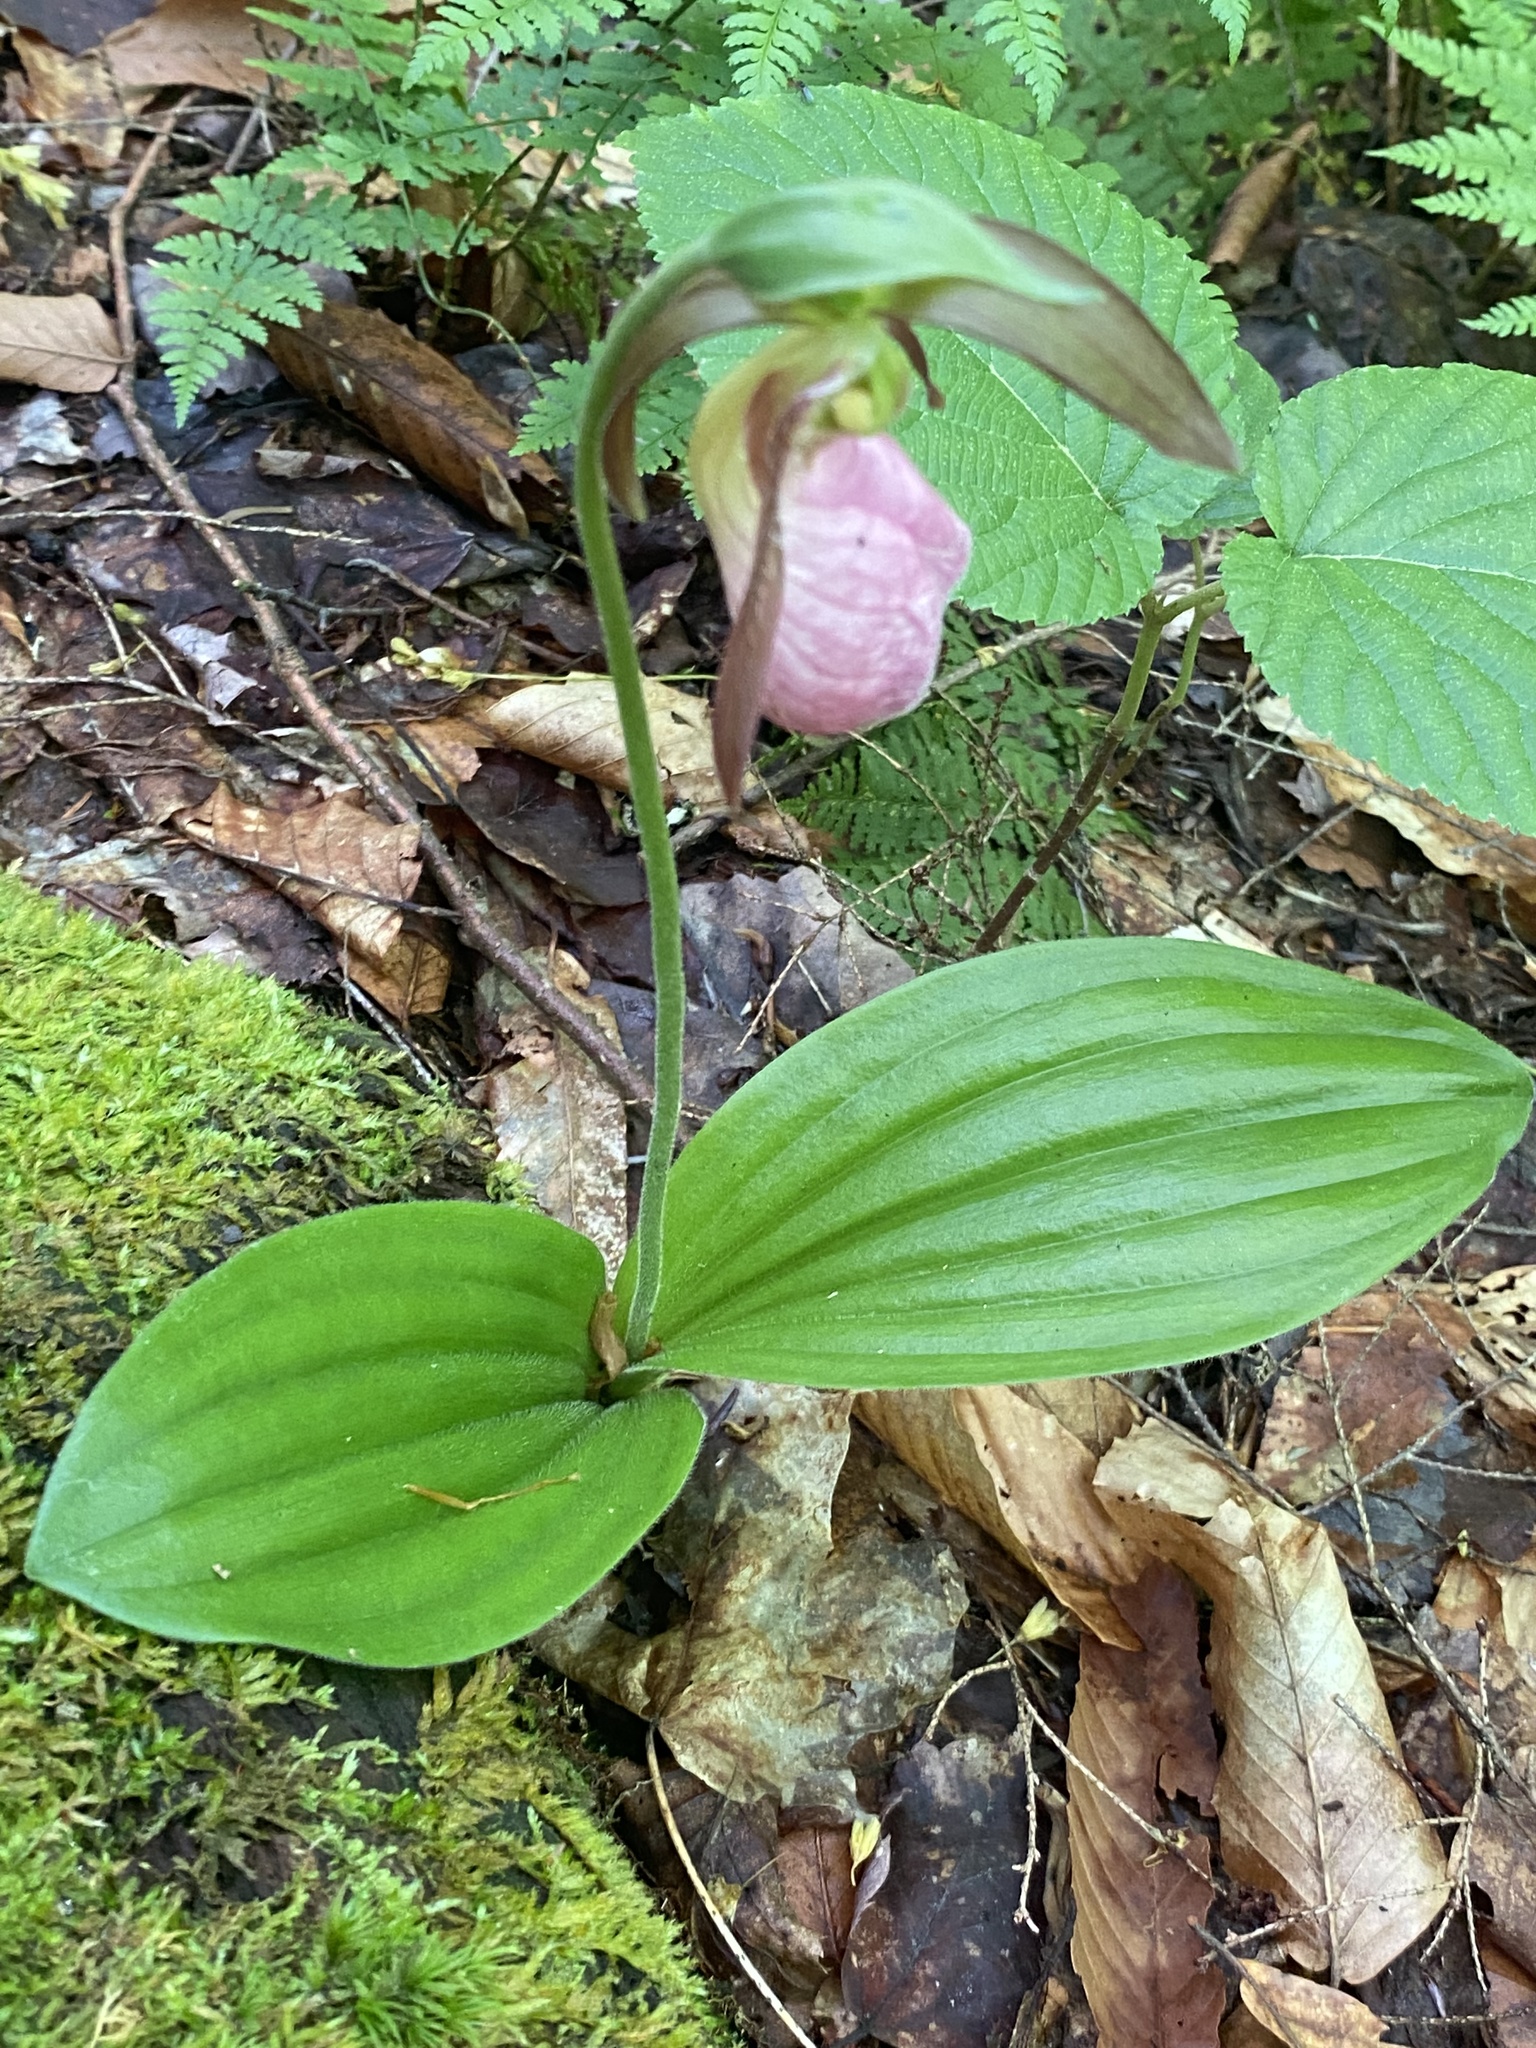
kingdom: Plantae
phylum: Tracheophyta
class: Liliopsida
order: Asparagales
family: Orchidaceae
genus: Cypripedium
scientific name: Cypripedium acaule
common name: Pink lady's-slipper
